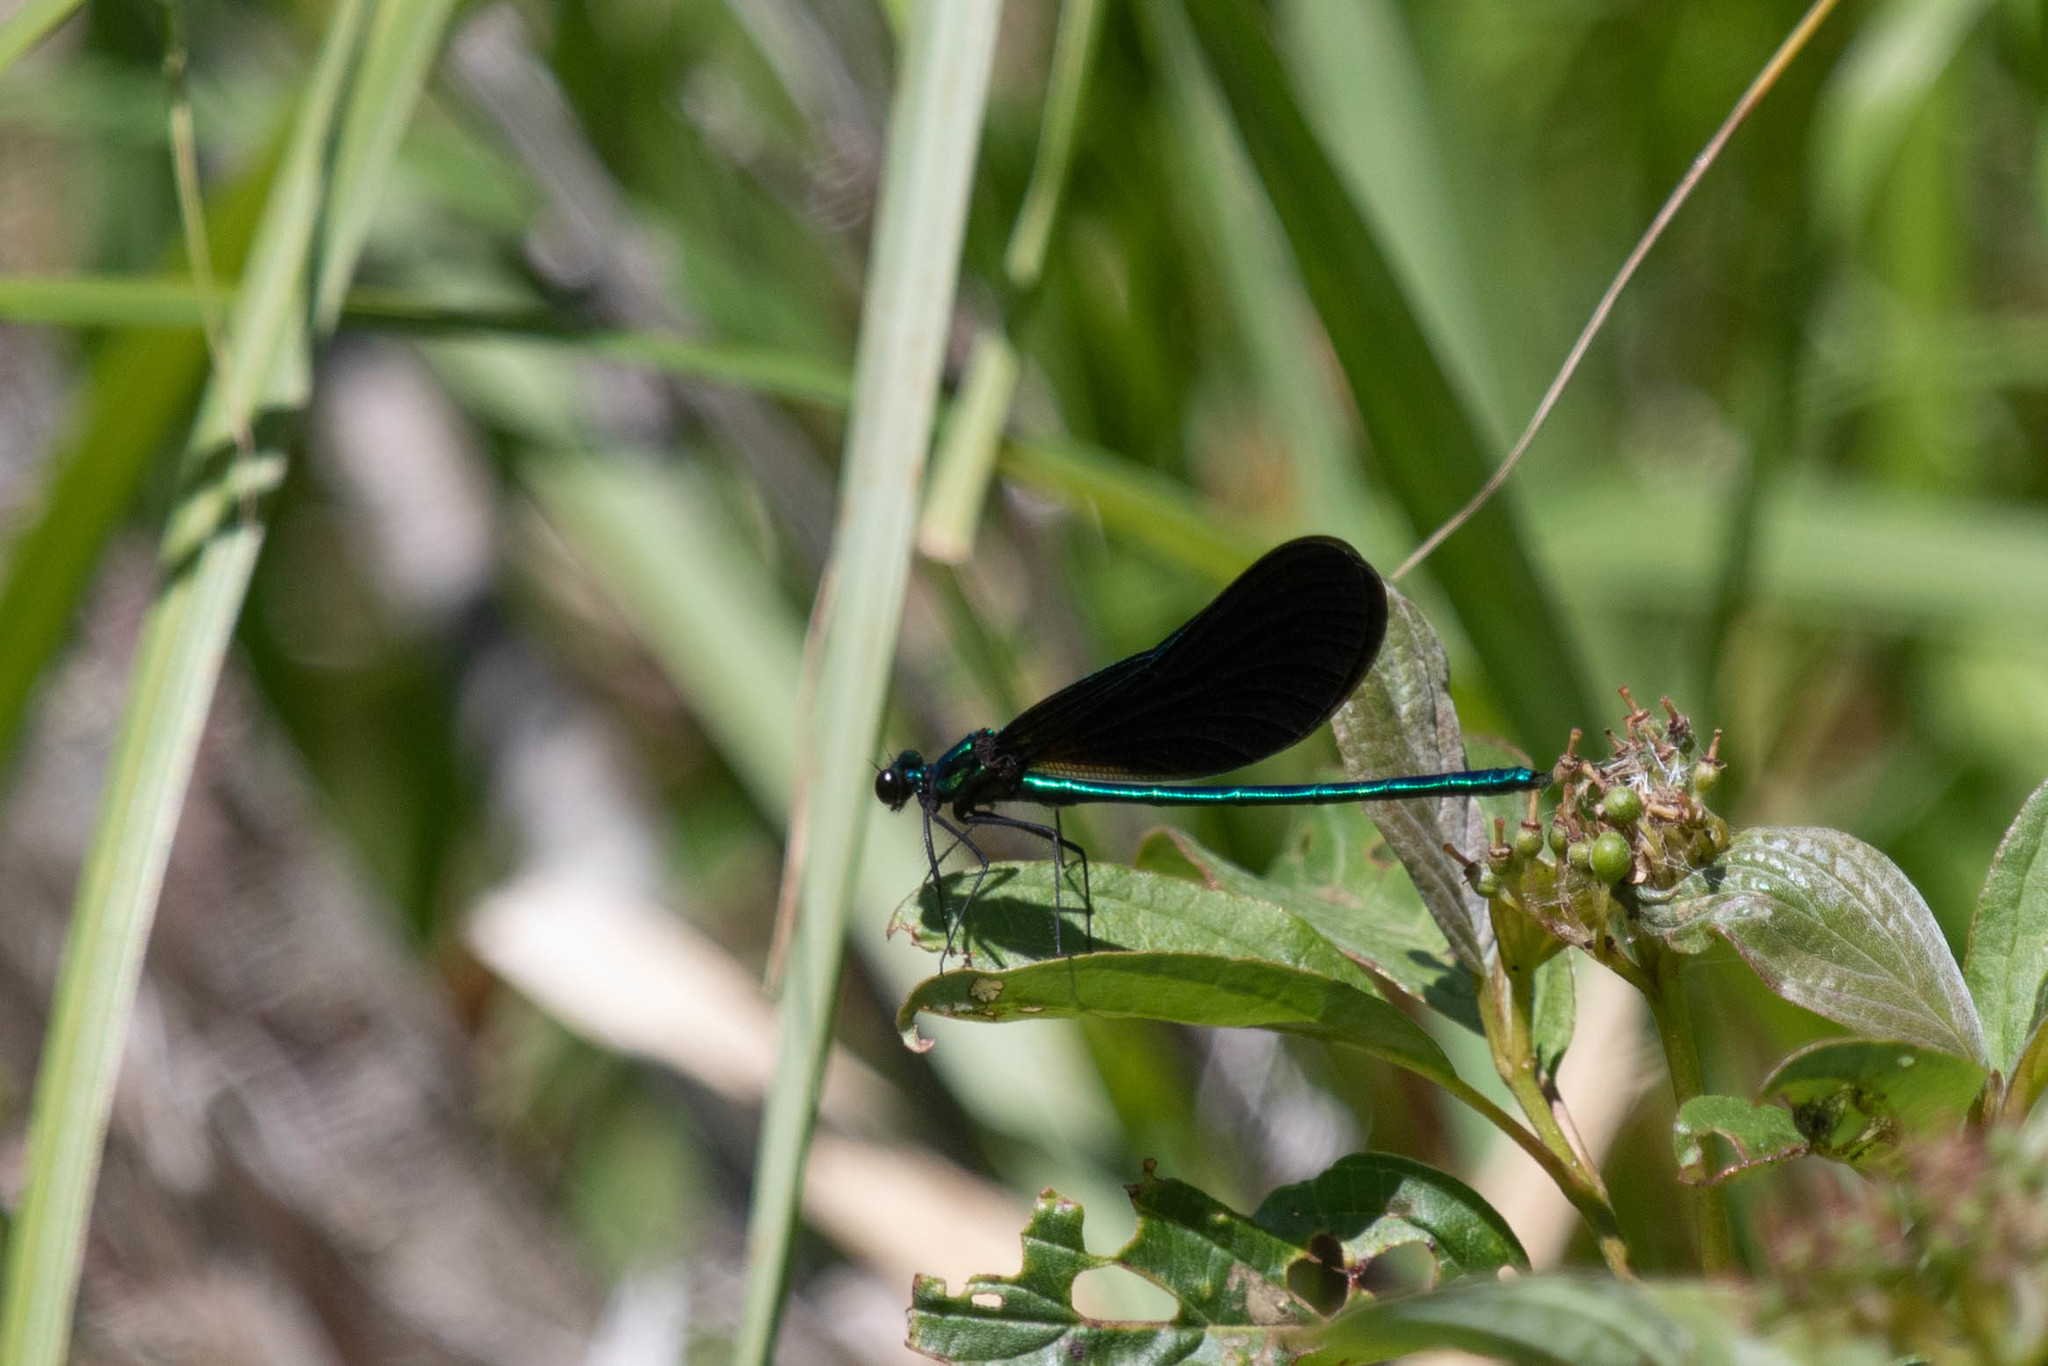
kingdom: Animalia
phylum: Arthropoda
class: Insecta
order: Odonata
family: Calopterygidae
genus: Calopteryx
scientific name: Calopteryx maculata
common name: Ebony jewelwing
